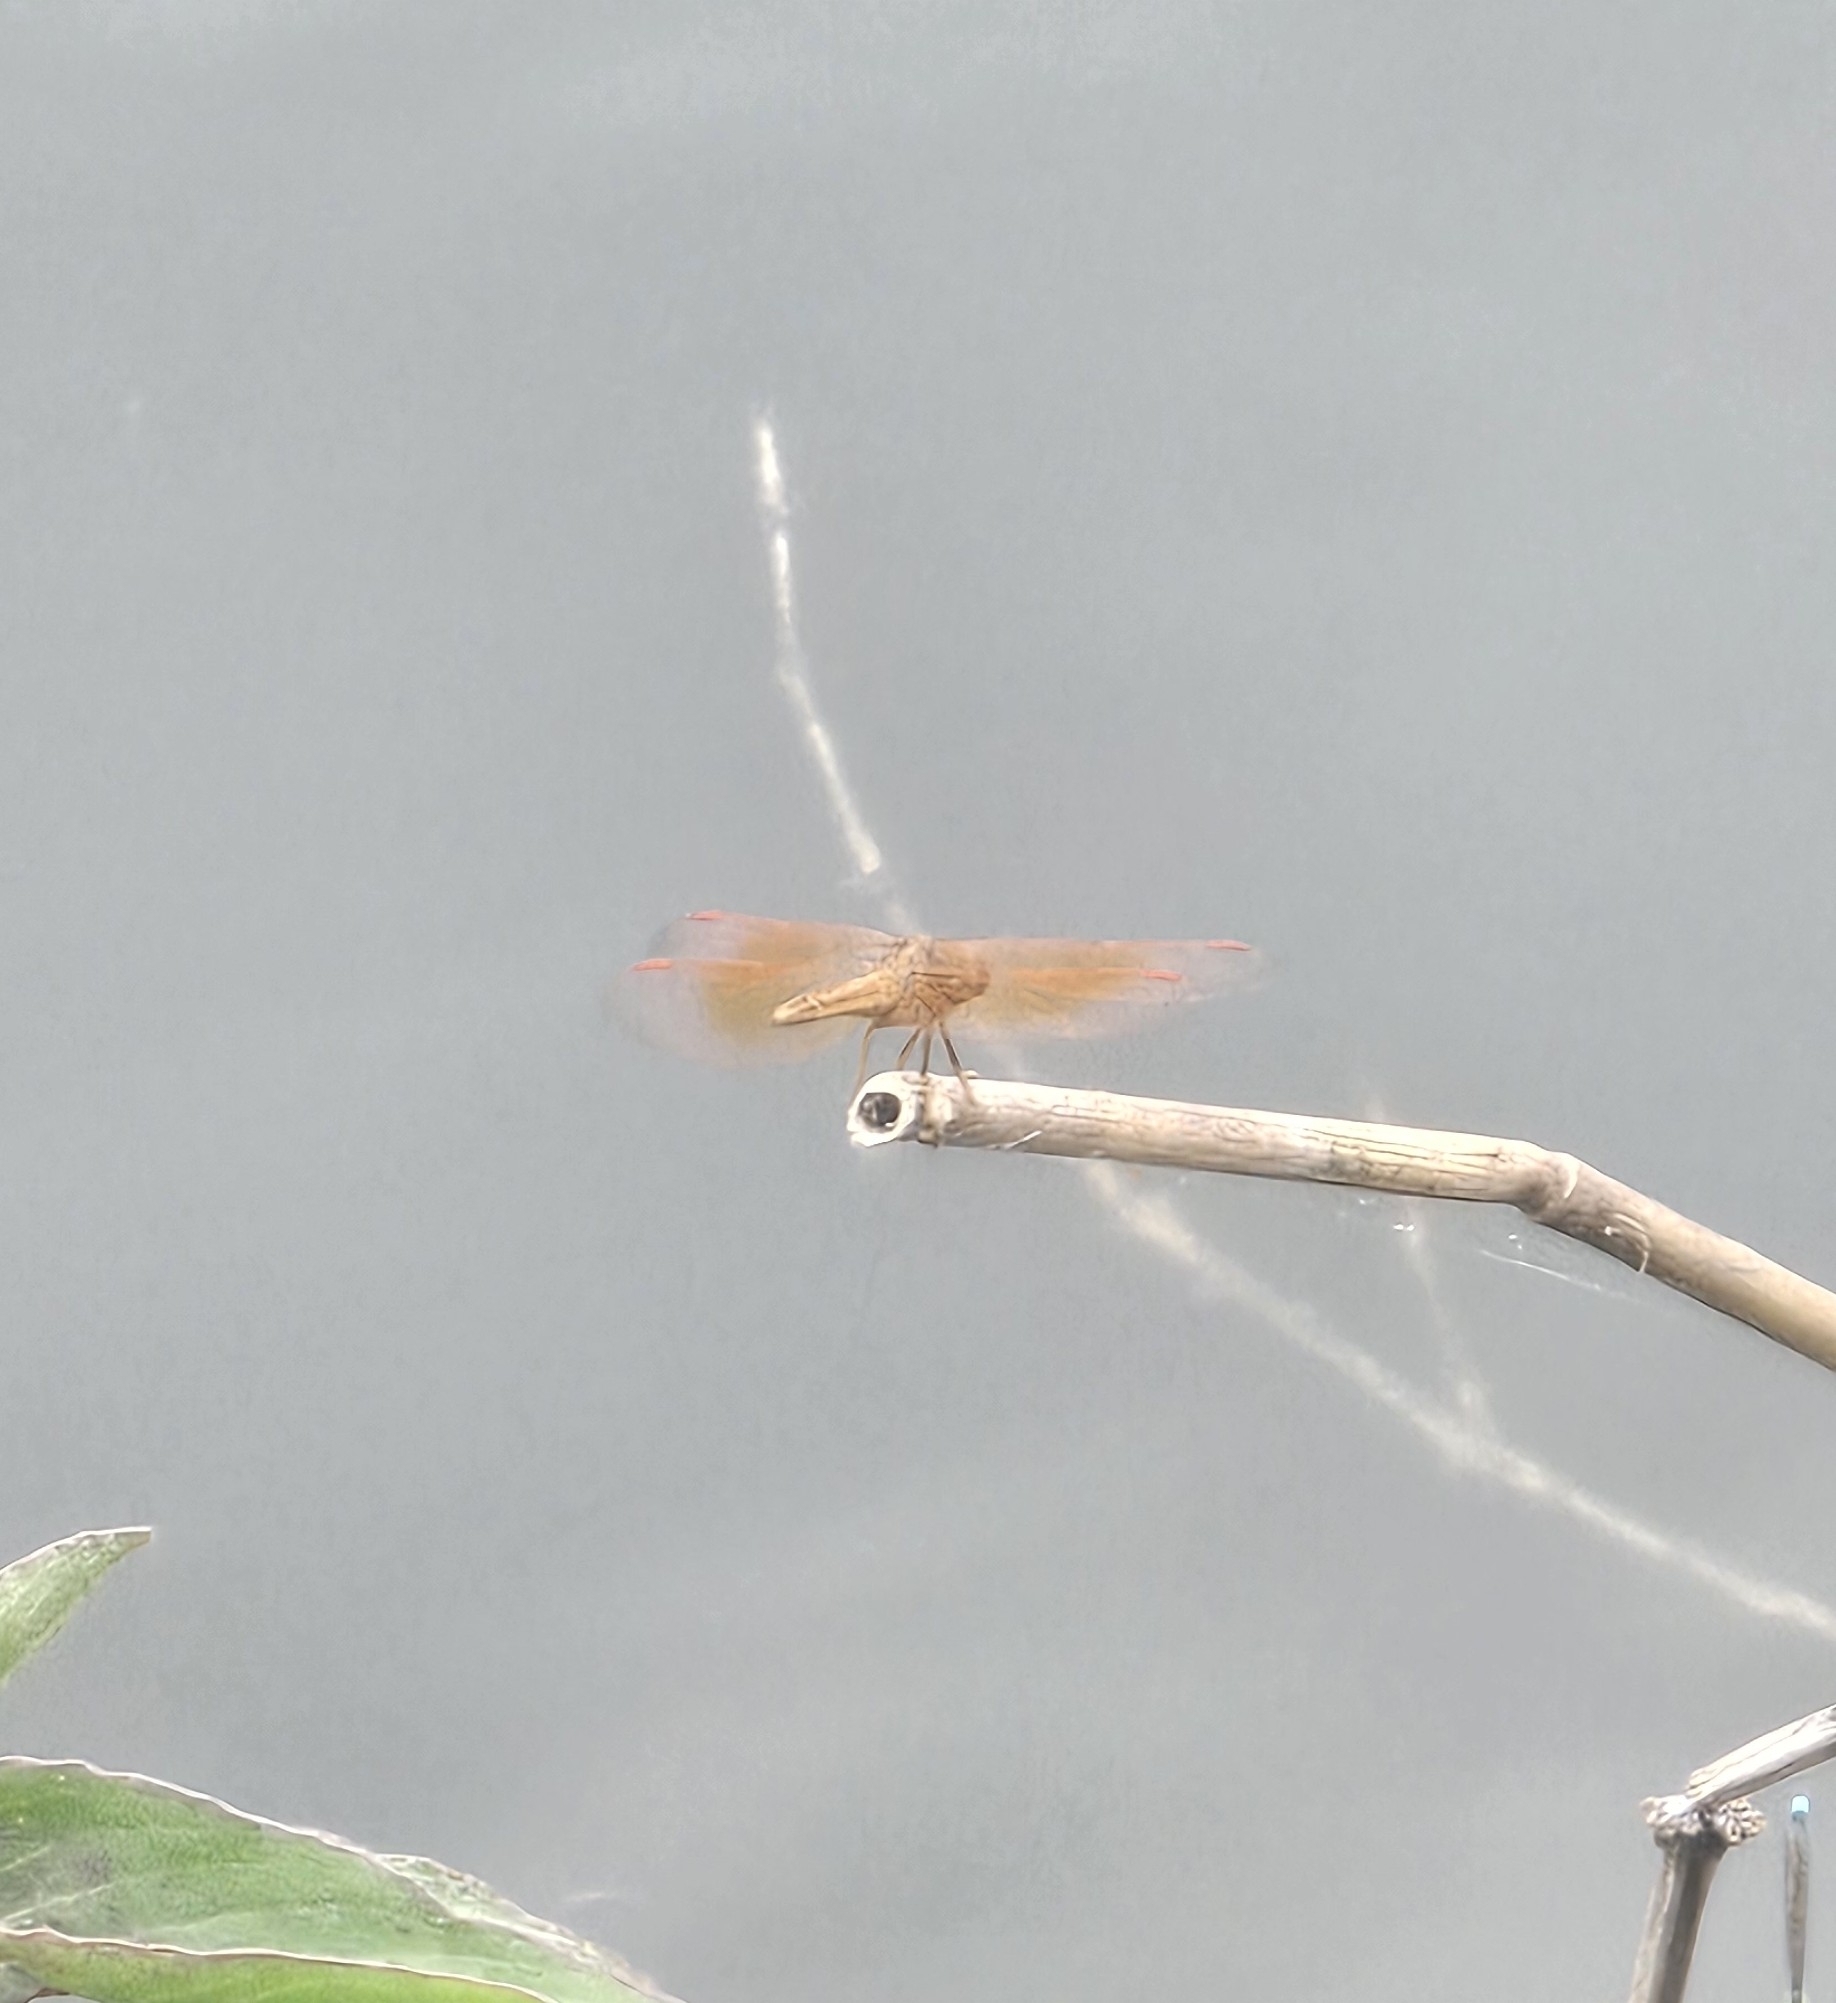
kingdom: Animalia
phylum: Arthropoda
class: Insecta
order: Odonata
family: Libellulidae
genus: Brachythemis
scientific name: Brachythemis contaminata
